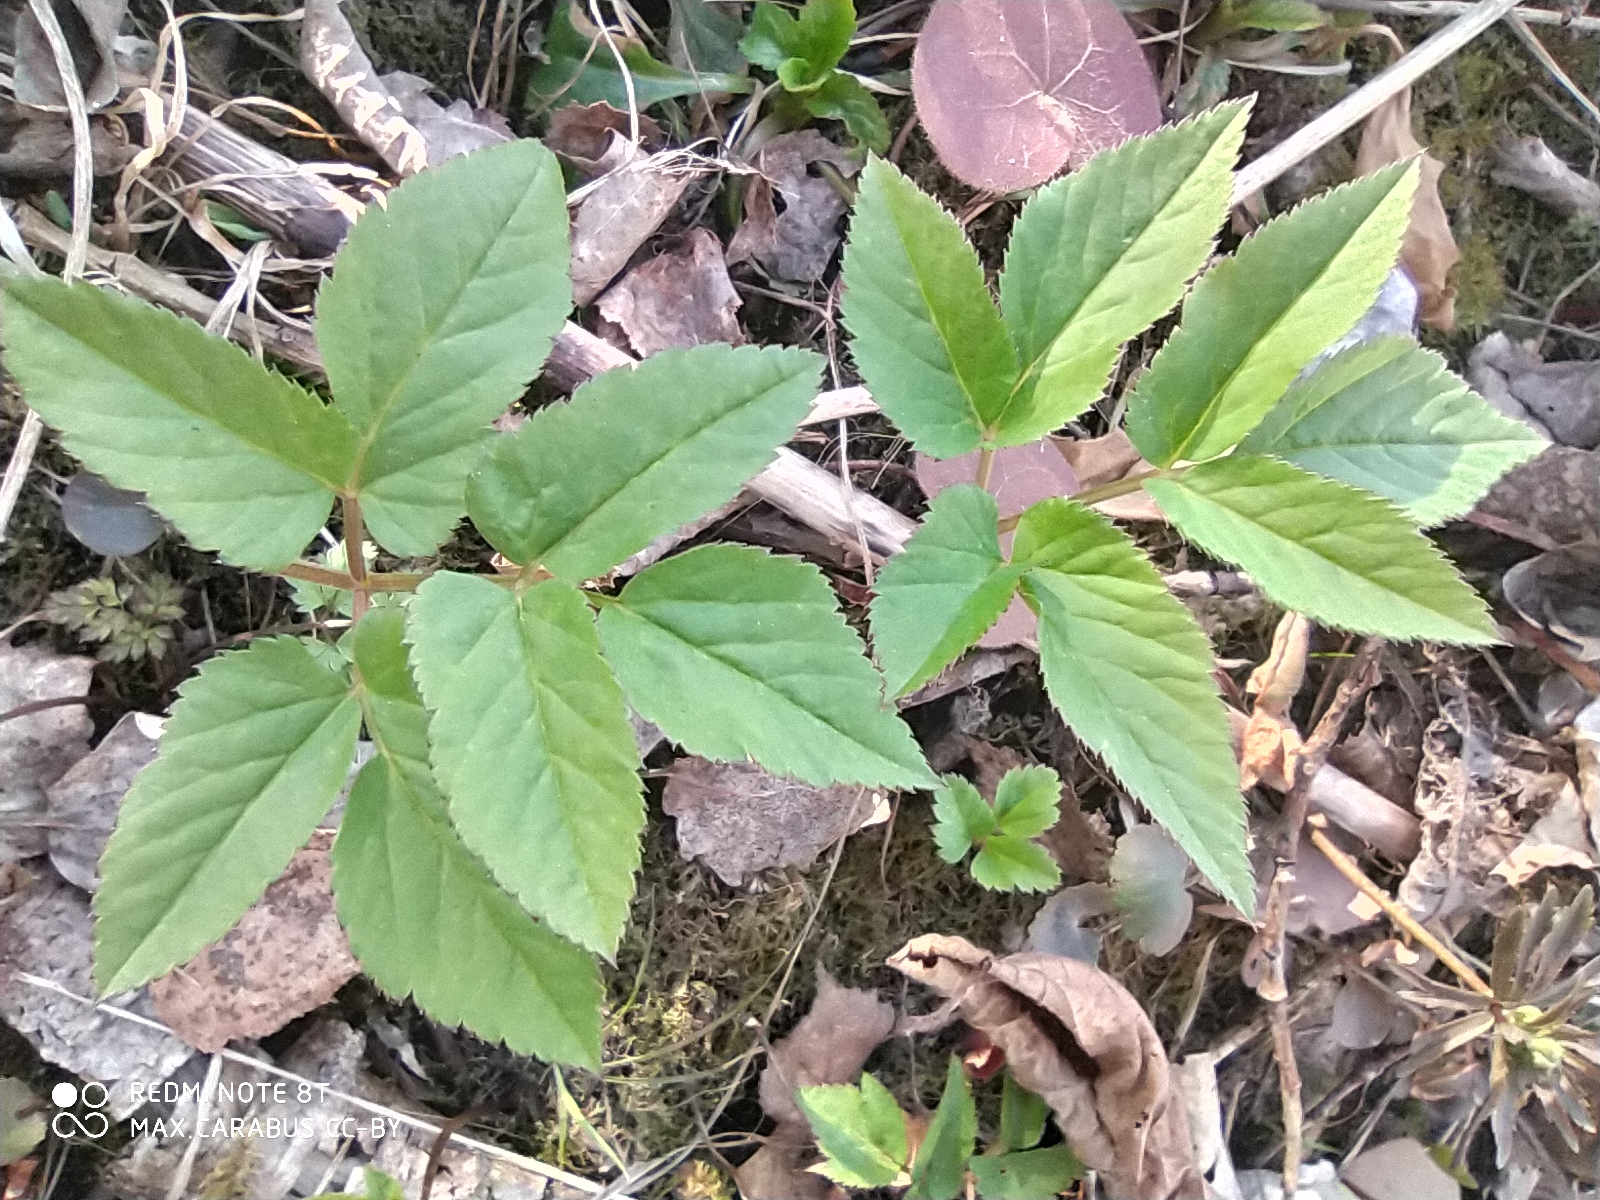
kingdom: Plantae
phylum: Tracheophyta
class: Magnoliopsida
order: Apiales
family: Apiaceae
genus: Aegopodium
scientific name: Aegopodium podagraria
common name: Ground-elder
